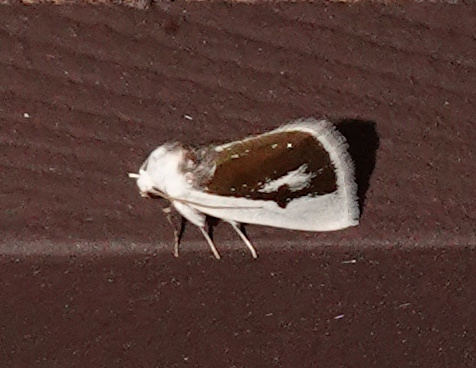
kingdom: Animalia
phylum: Arthropoda
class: Insecta
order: Lepidoptera
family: Noctuidae
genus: Neumoegenia
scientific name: Neumoegenia poetica
